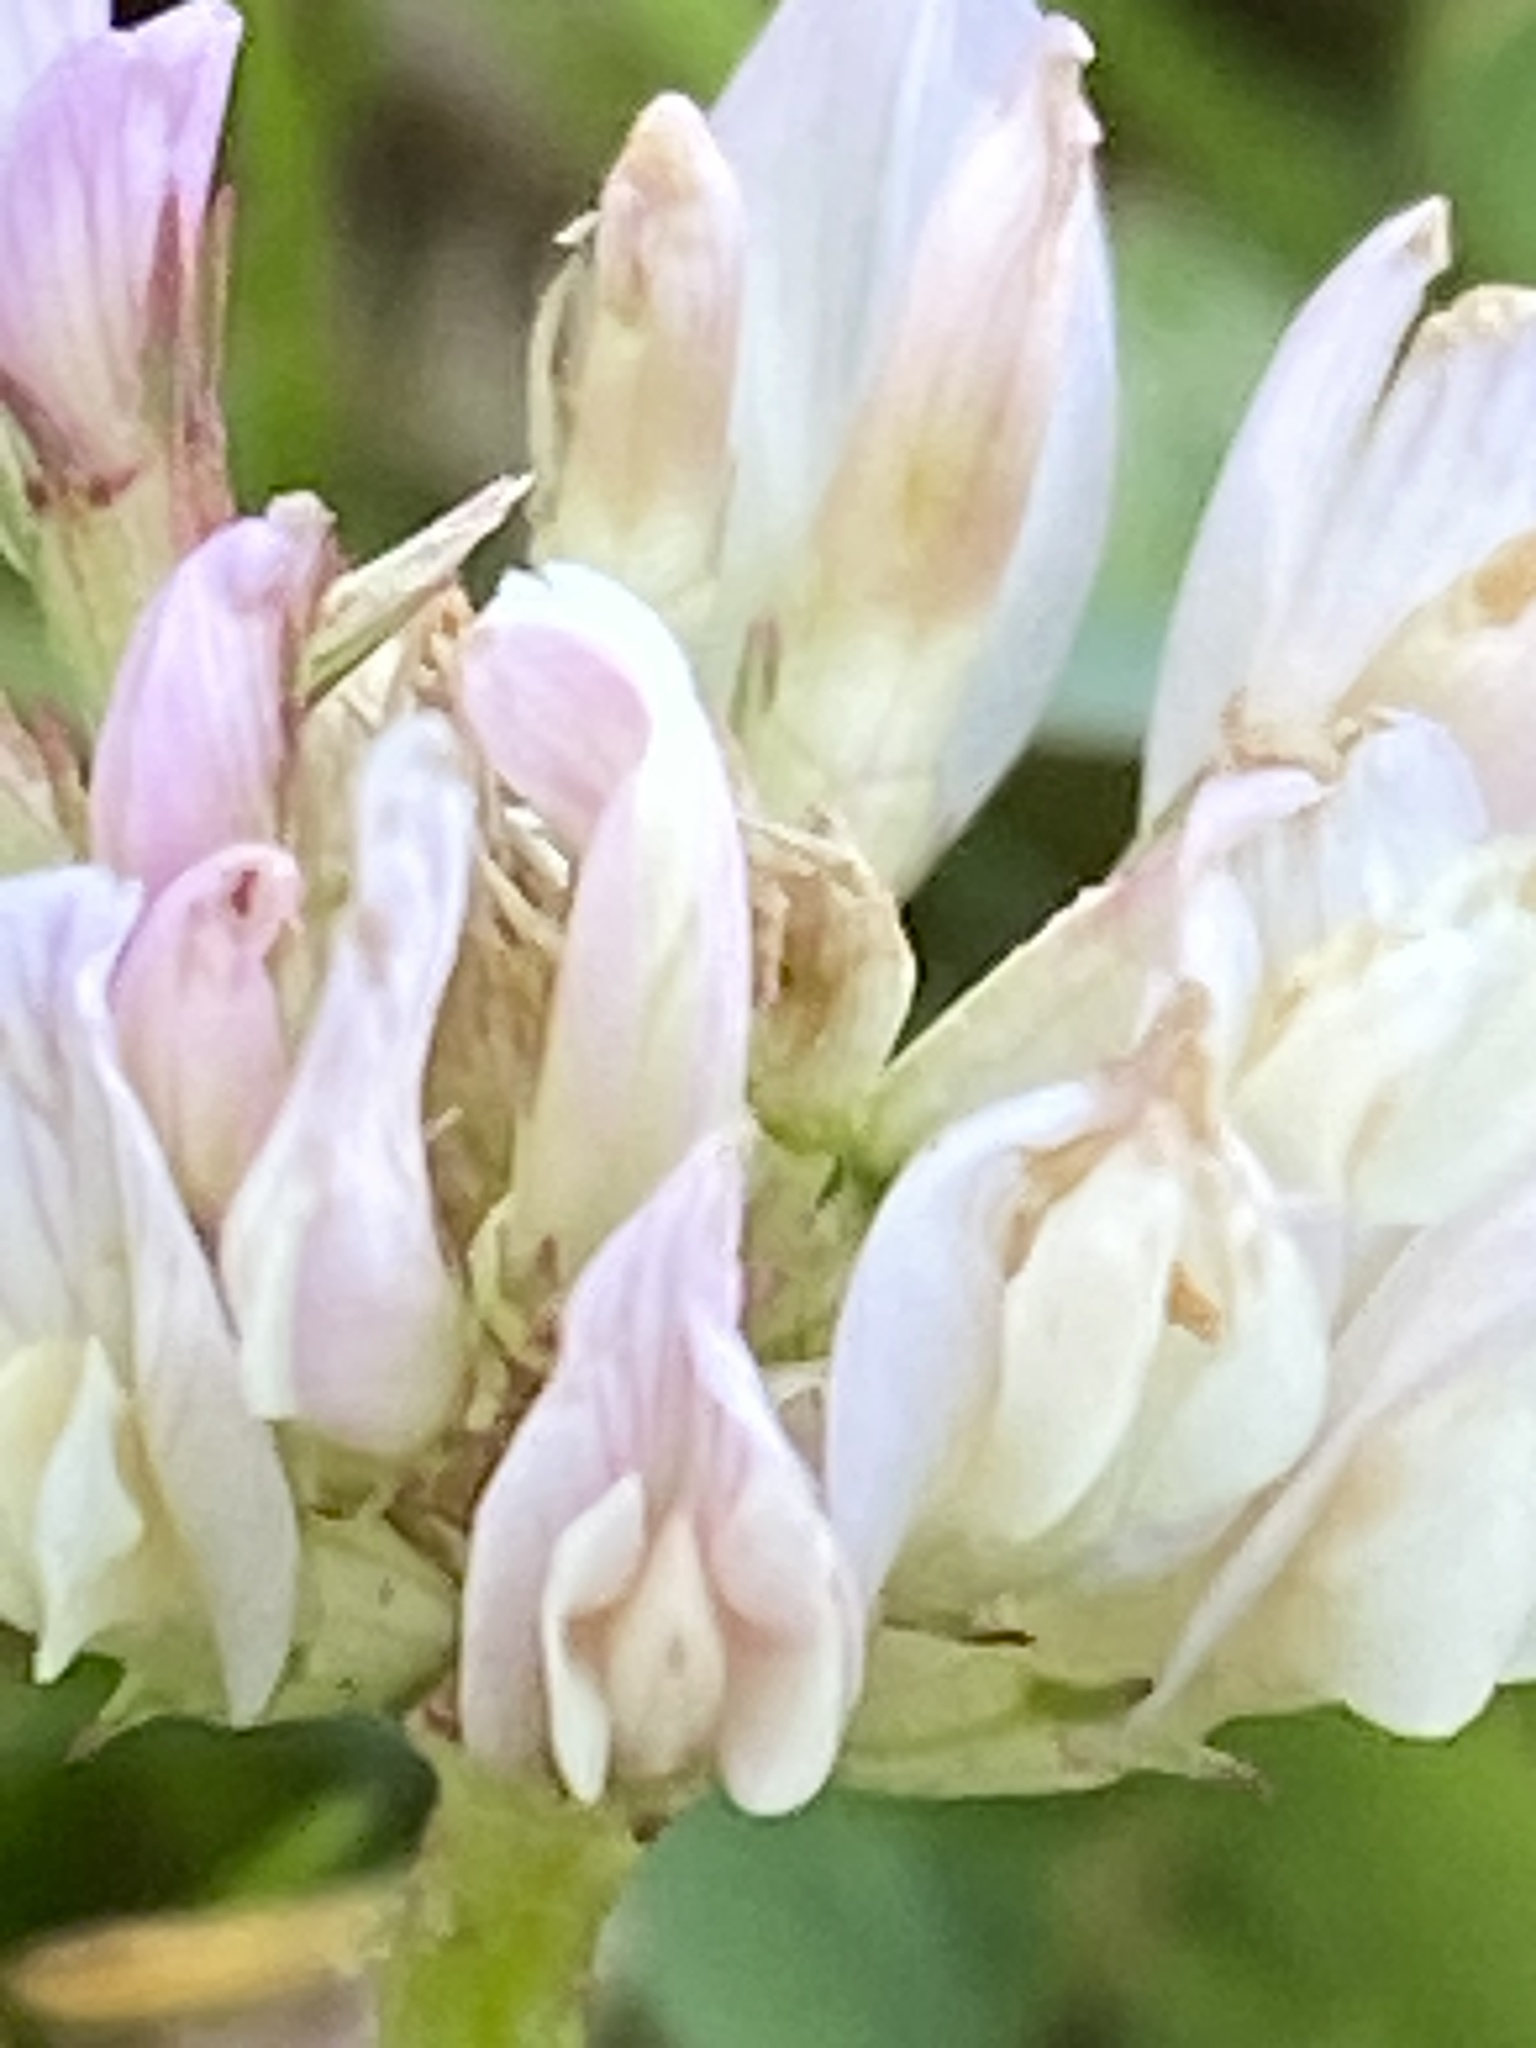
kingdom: Plantae
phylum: Tracheophyta
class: Magnoliopsida
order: Fabales
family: Fabaceae
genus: Trifolium
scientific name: Trifolium repens
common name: White clover
